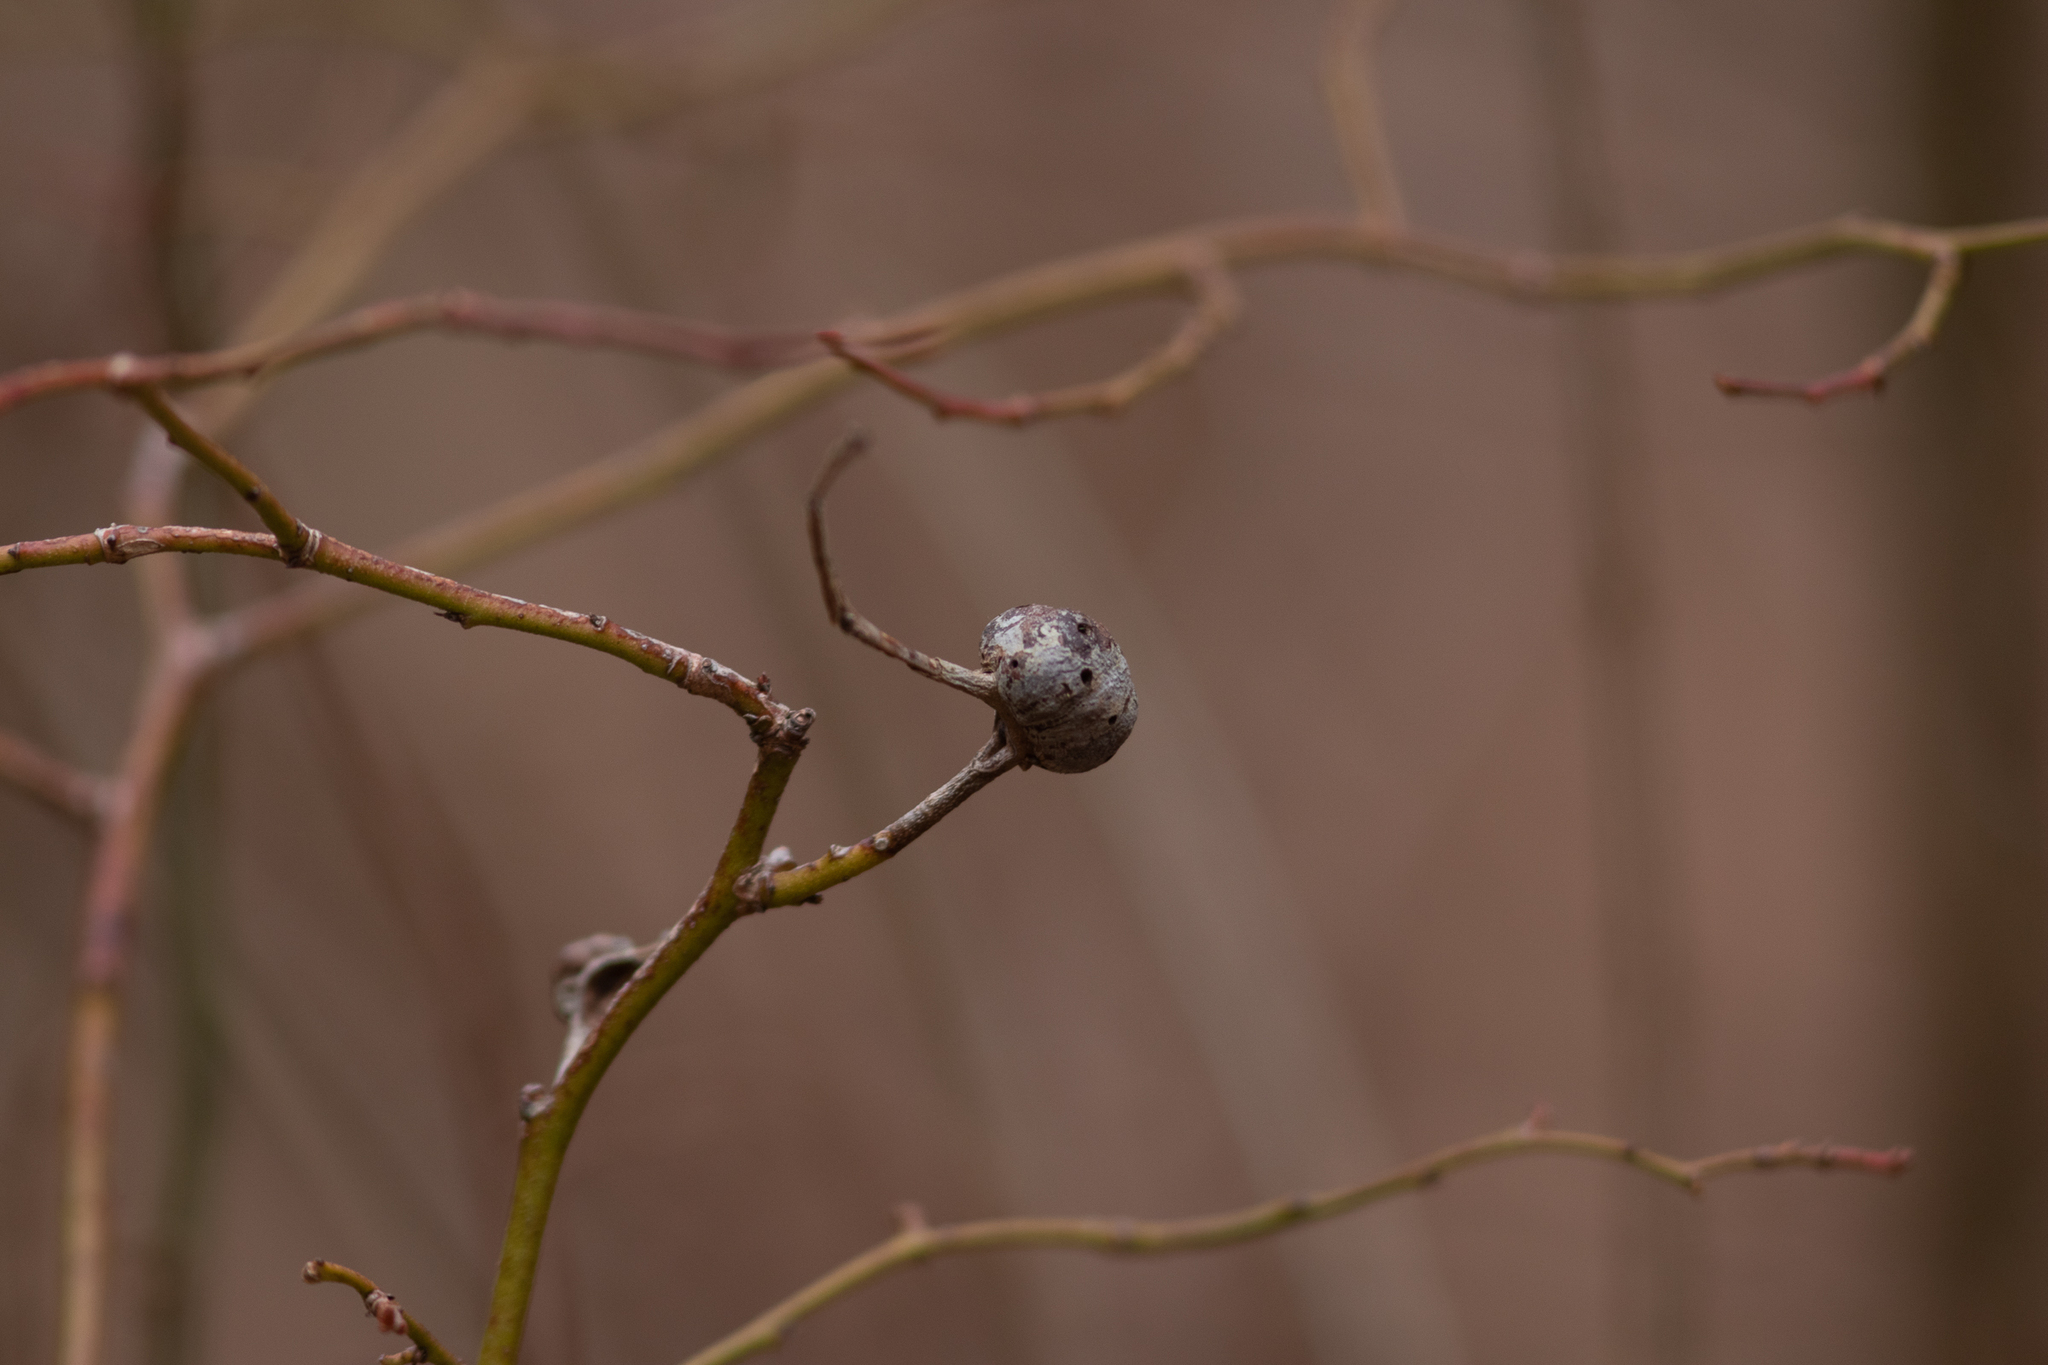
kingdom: Animalia
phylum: Arthropoda
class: Insecta
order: Hymenoptera
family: Pteromalidae
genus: Hemadas
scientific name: Hemadas nubilipennis
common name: Blueberry stem gall wasp
